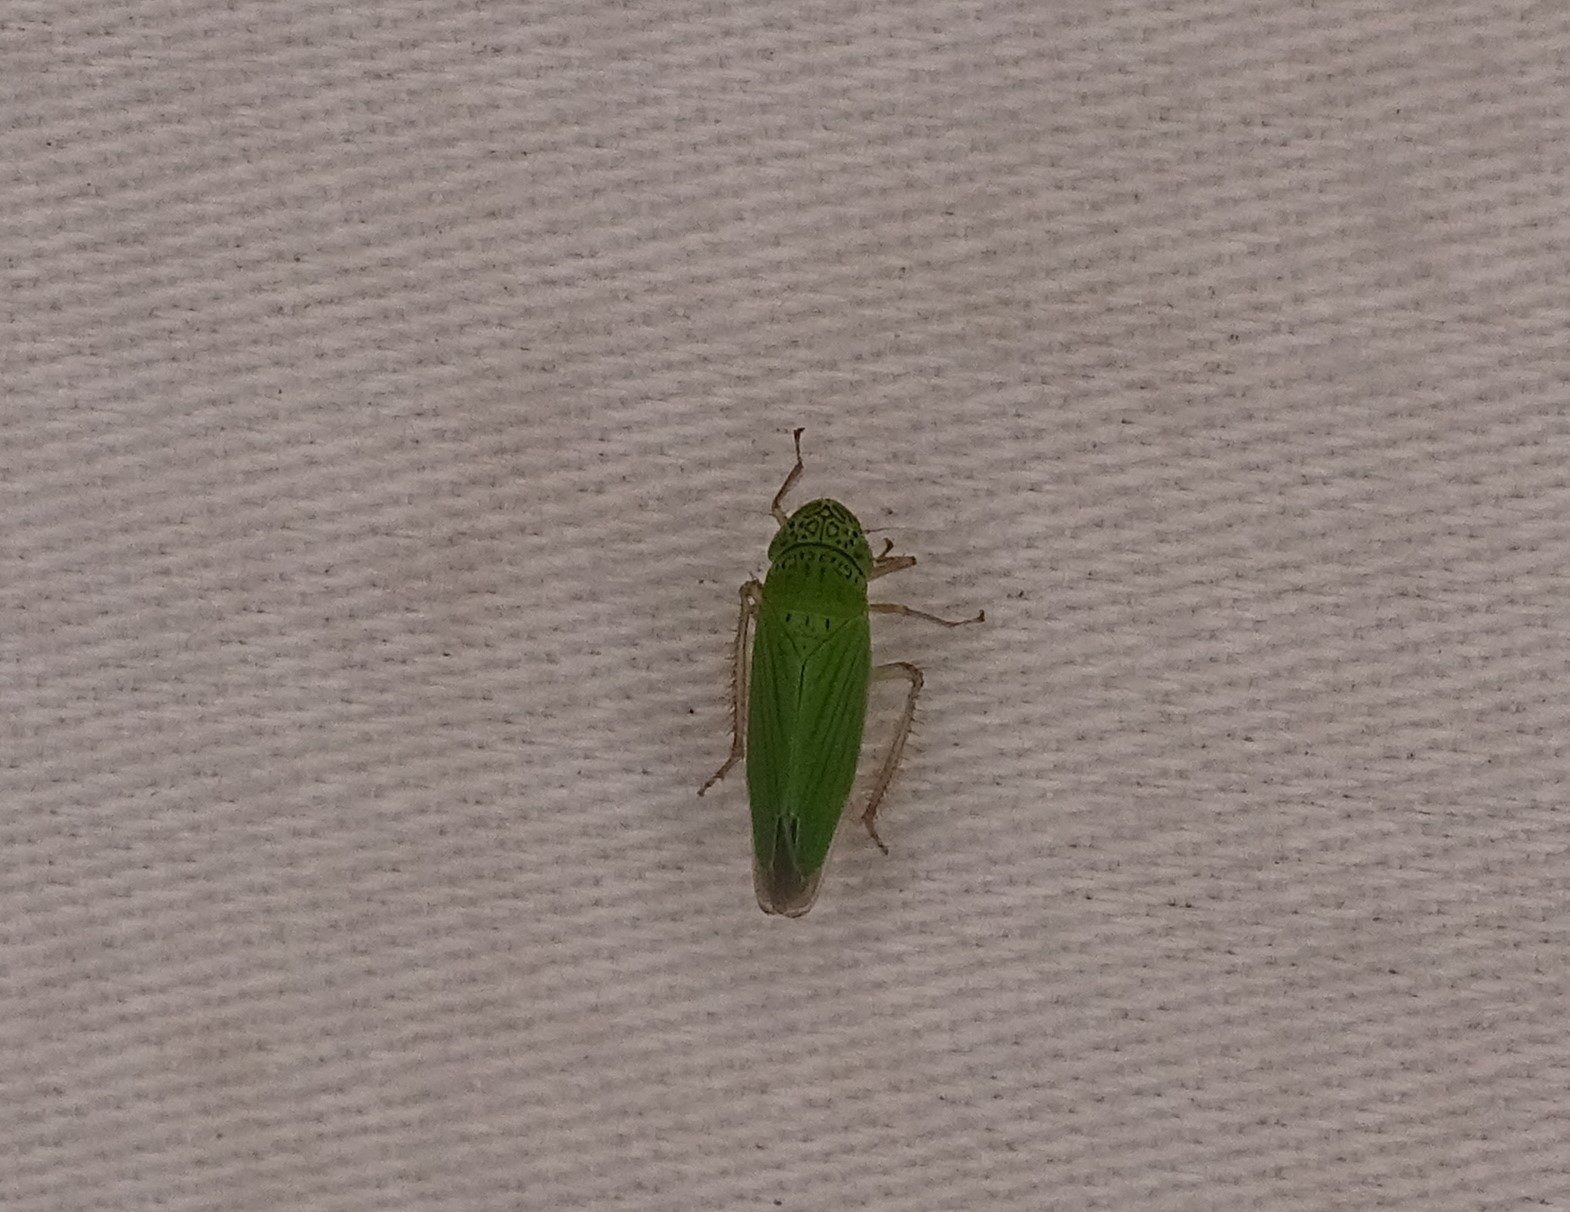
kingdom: Animalia
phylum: Arthropoda
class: Insecta
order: Hemiptera
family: Cicadellidae
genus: Hortensia
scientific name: Hortensia similis
